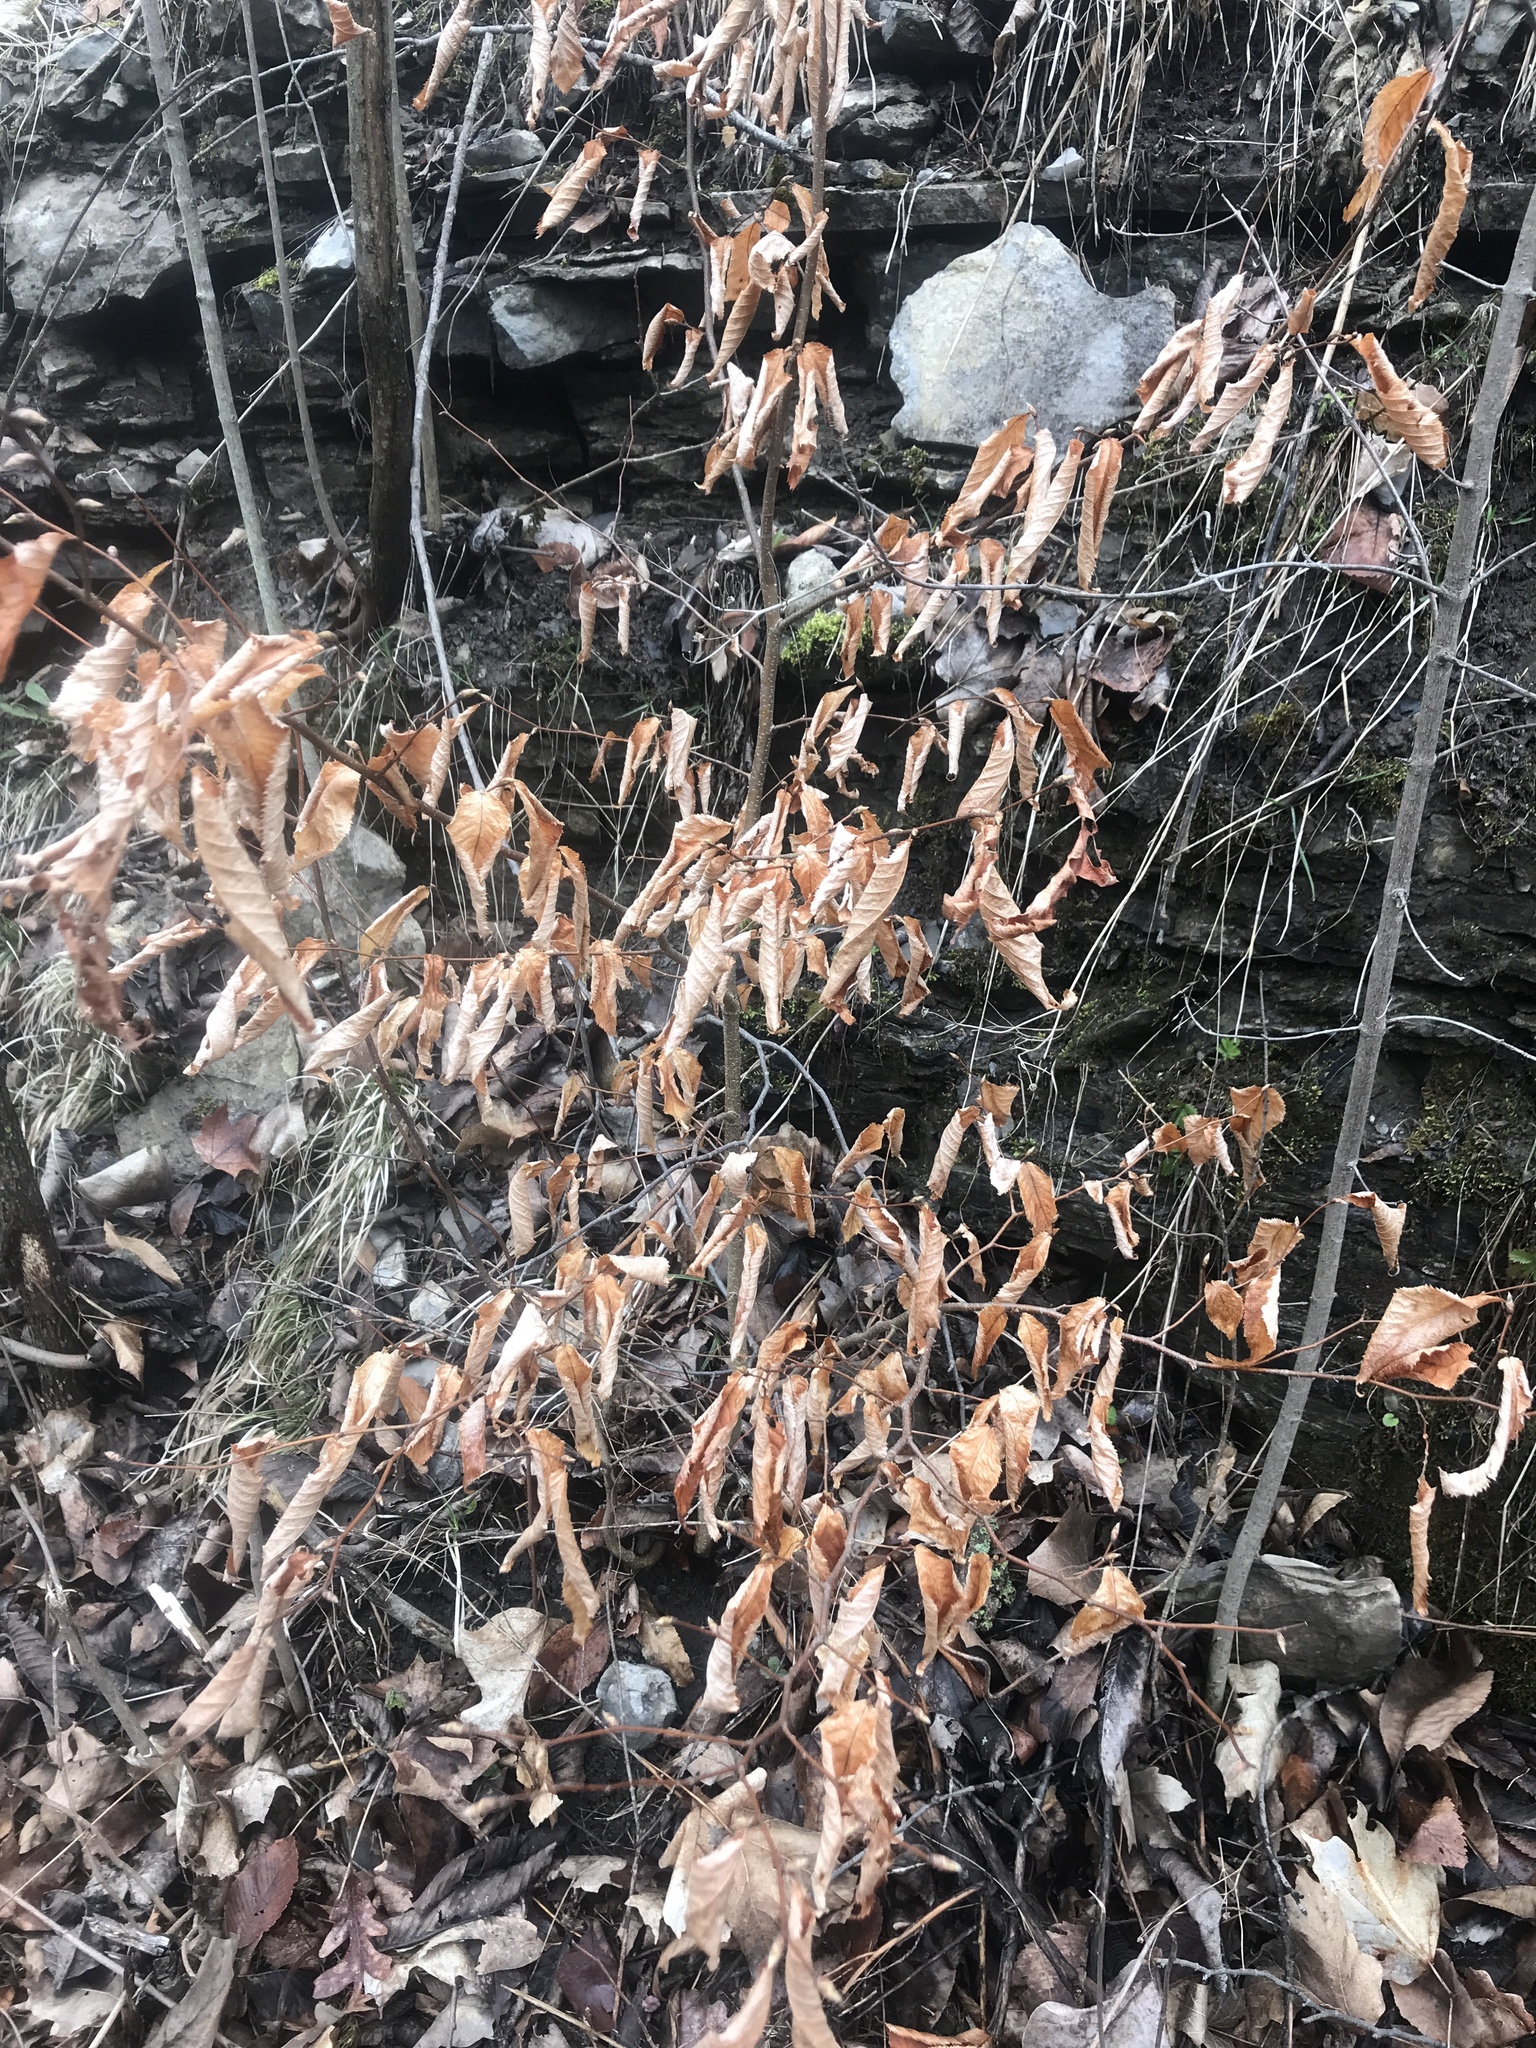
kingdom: Plantae
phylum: Tracheophyta
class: Magnoliopsida
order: Fagales
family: Fagaceae
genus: Fagus
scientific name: Fagus grandifolia
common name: American beech
